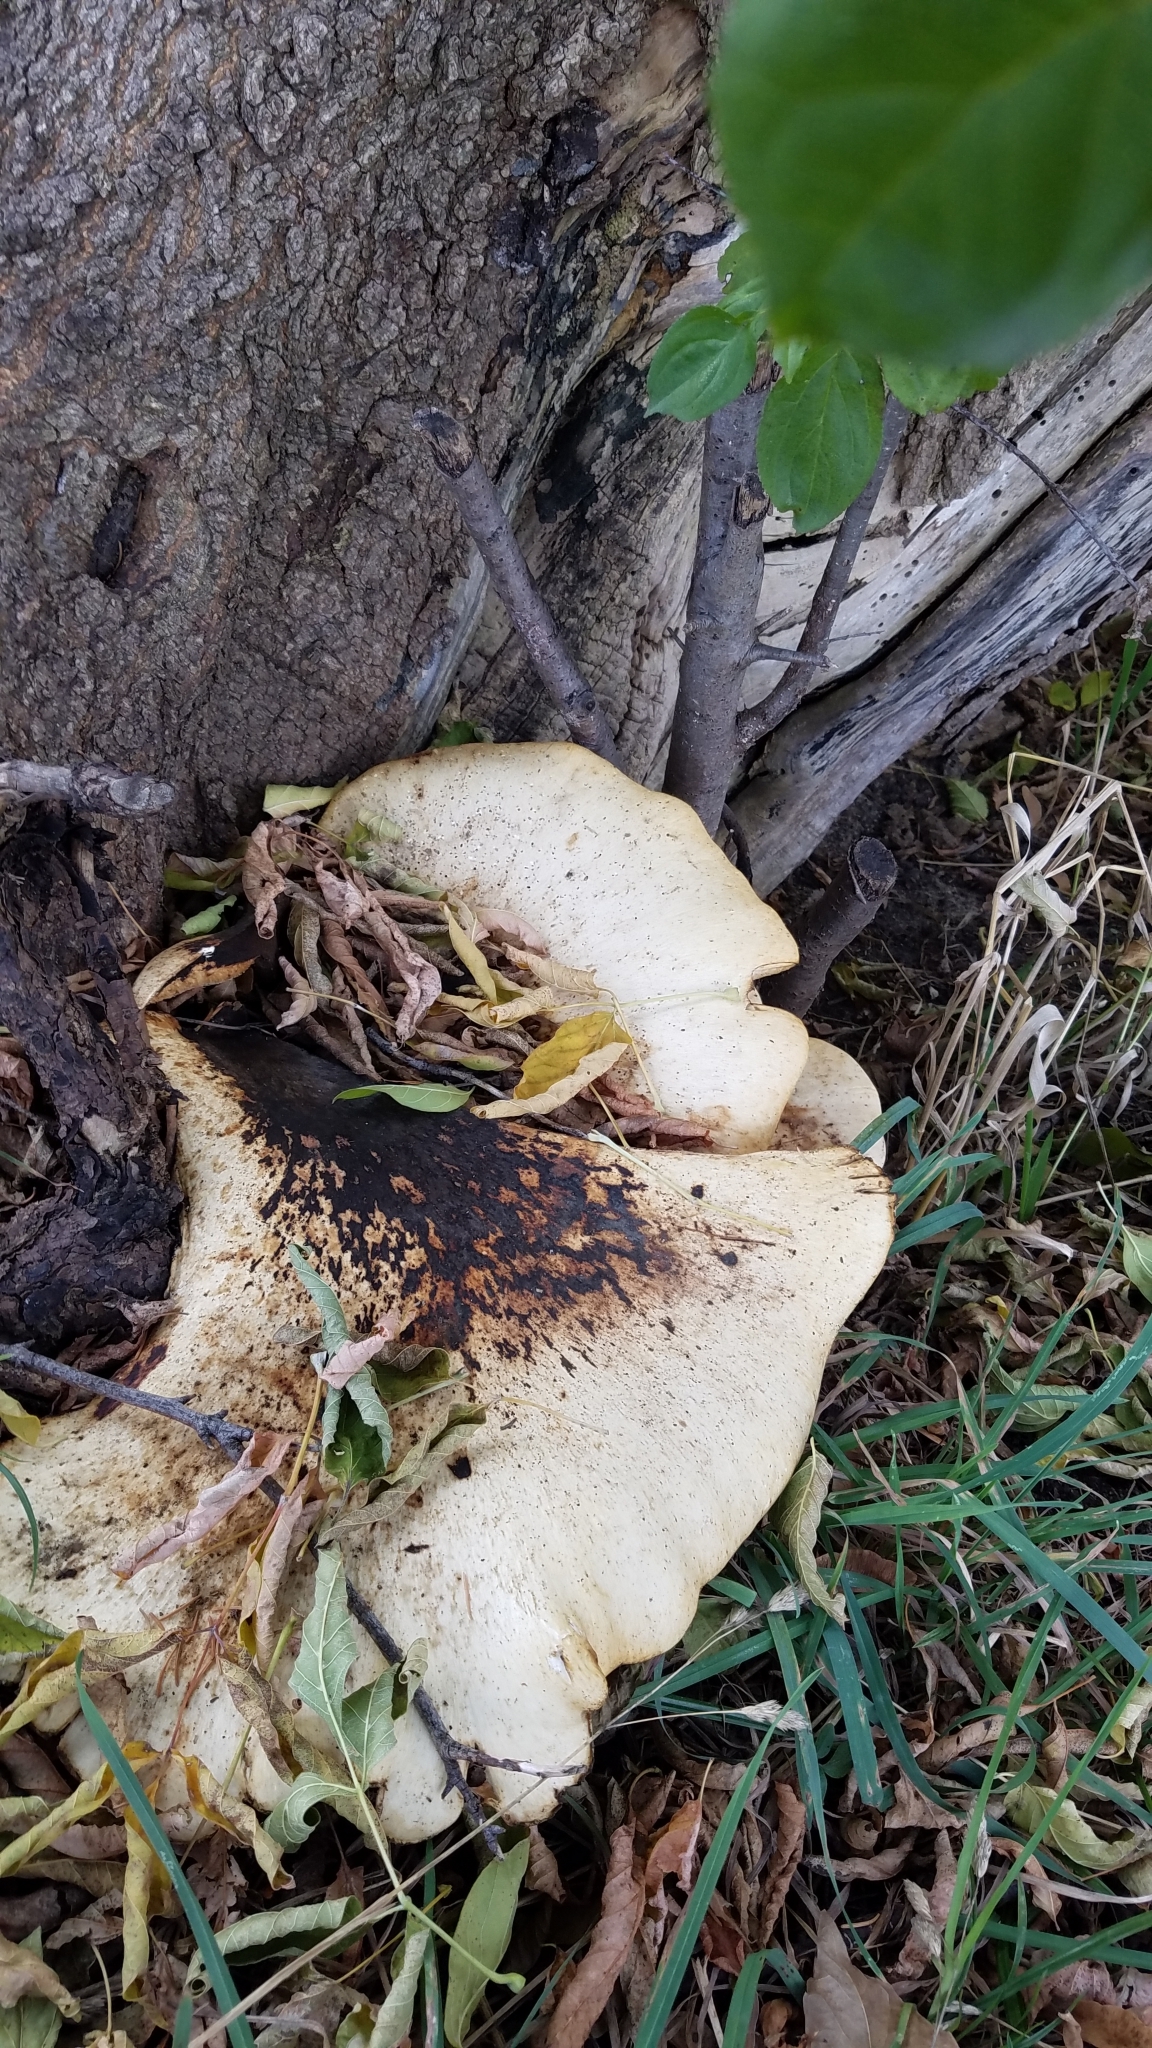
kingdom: Fungi
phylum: Basidiomycota
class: Agaricomycetes
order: Polyporales
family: Polyporaceae
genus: Cerioporus
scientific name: Cerioporus squamosus
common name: Dryad's saddle
